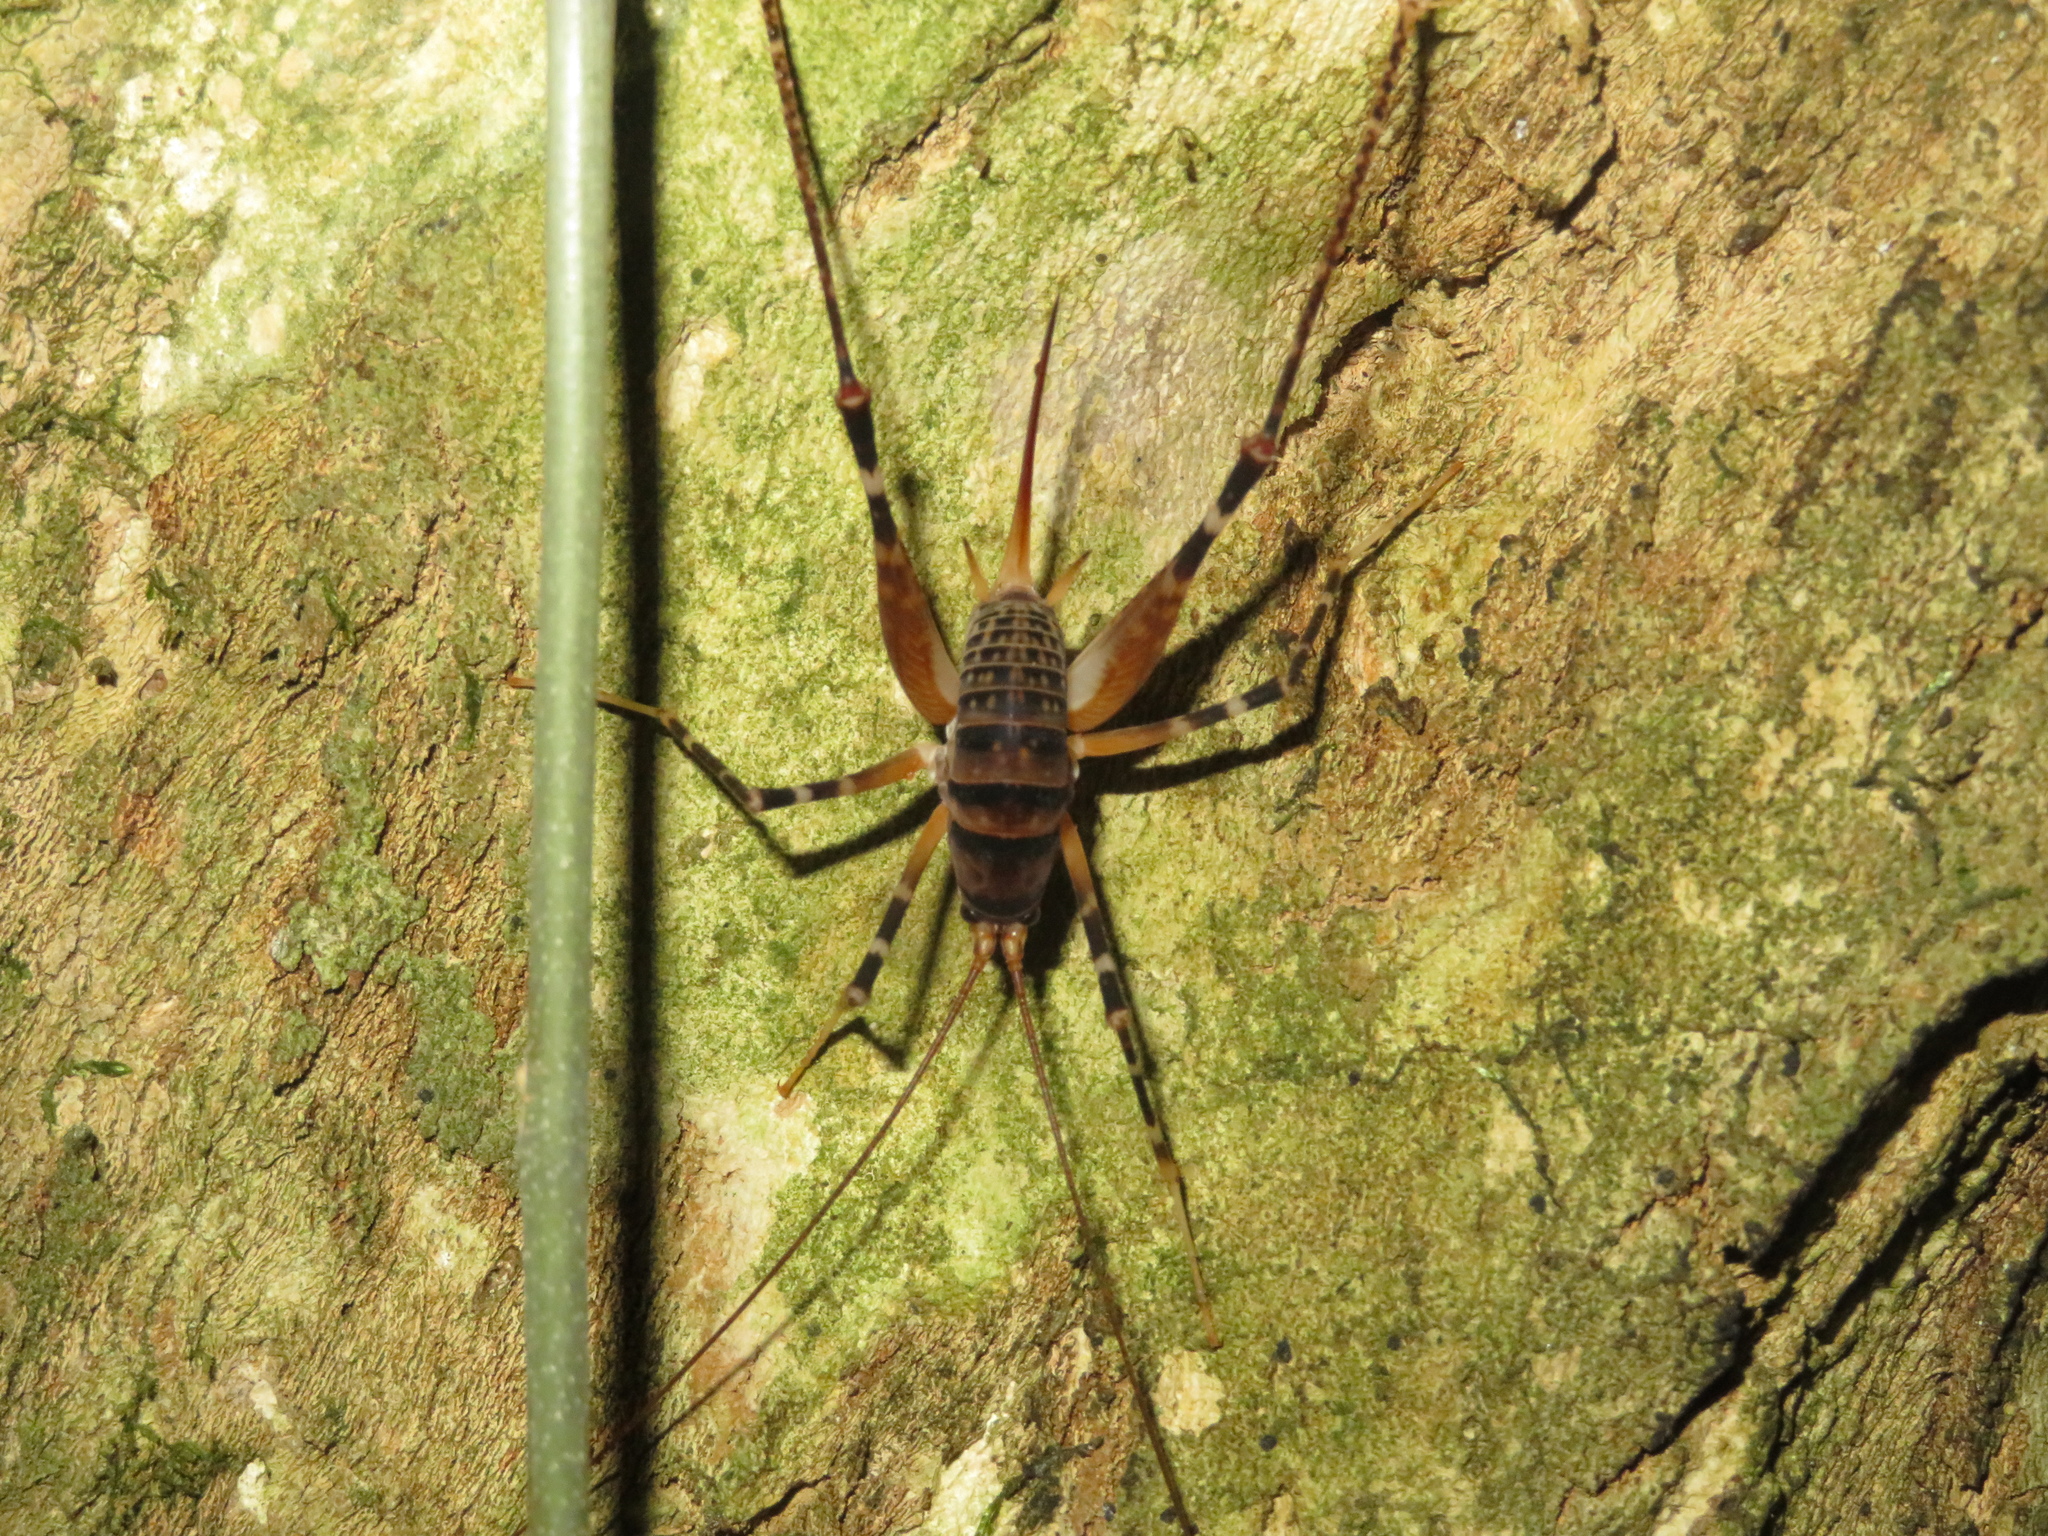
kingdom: Animalia
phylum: Arthropoda
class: Insecta
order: Orthoptera
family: Rhaphidophoridae
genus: Pachyrhamma
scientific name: Pachyrhamma edwardsii
